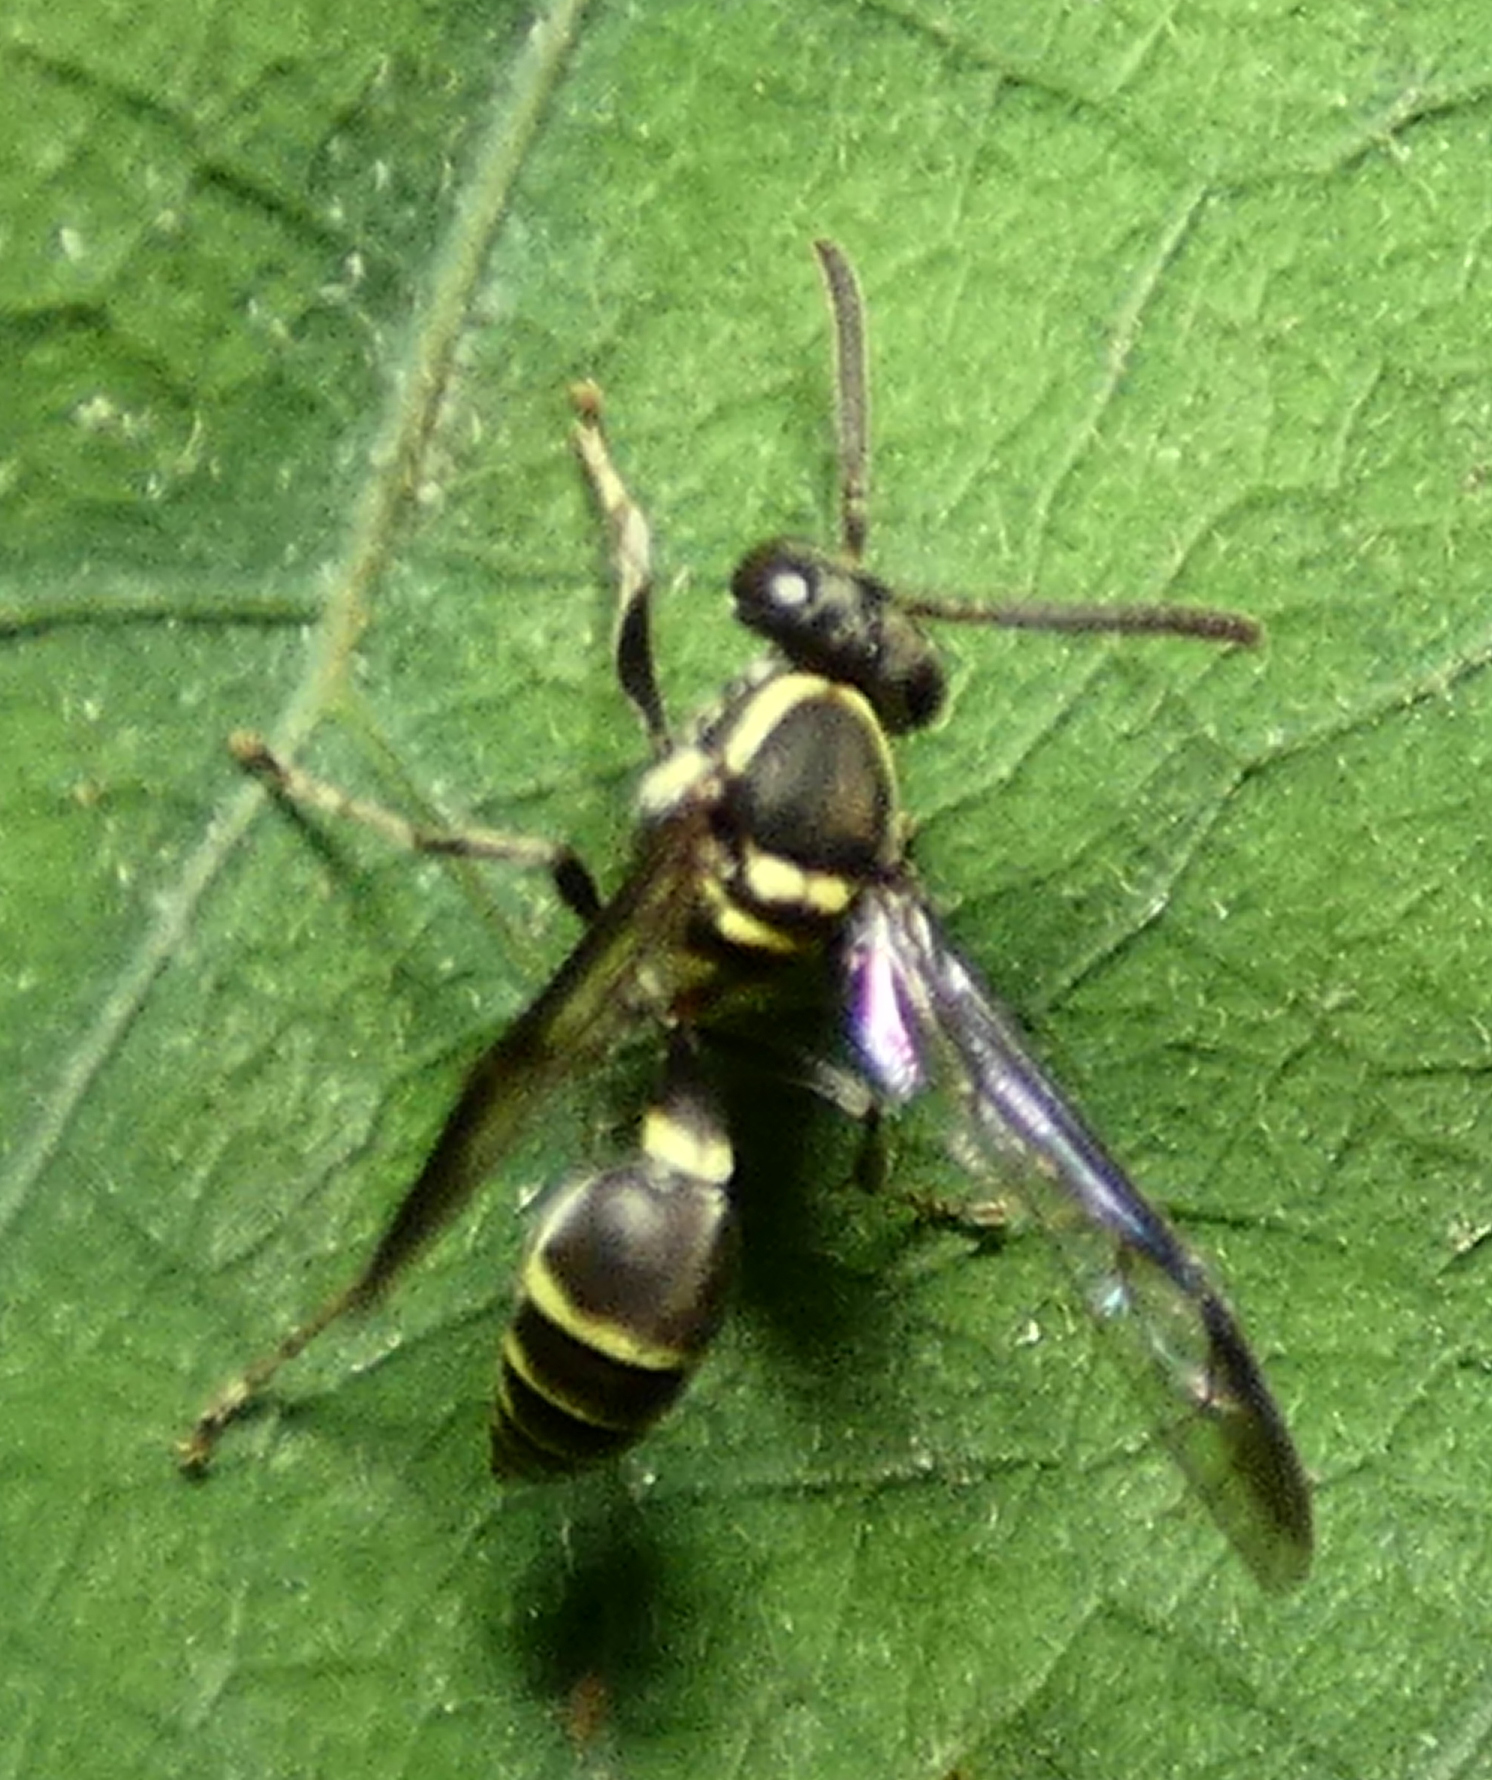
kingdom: Animalia
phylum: Arthropoda
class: Insecta
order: Hymenoptera
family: Eumenidae
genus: Polybia
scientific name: Polybia occidentalis
